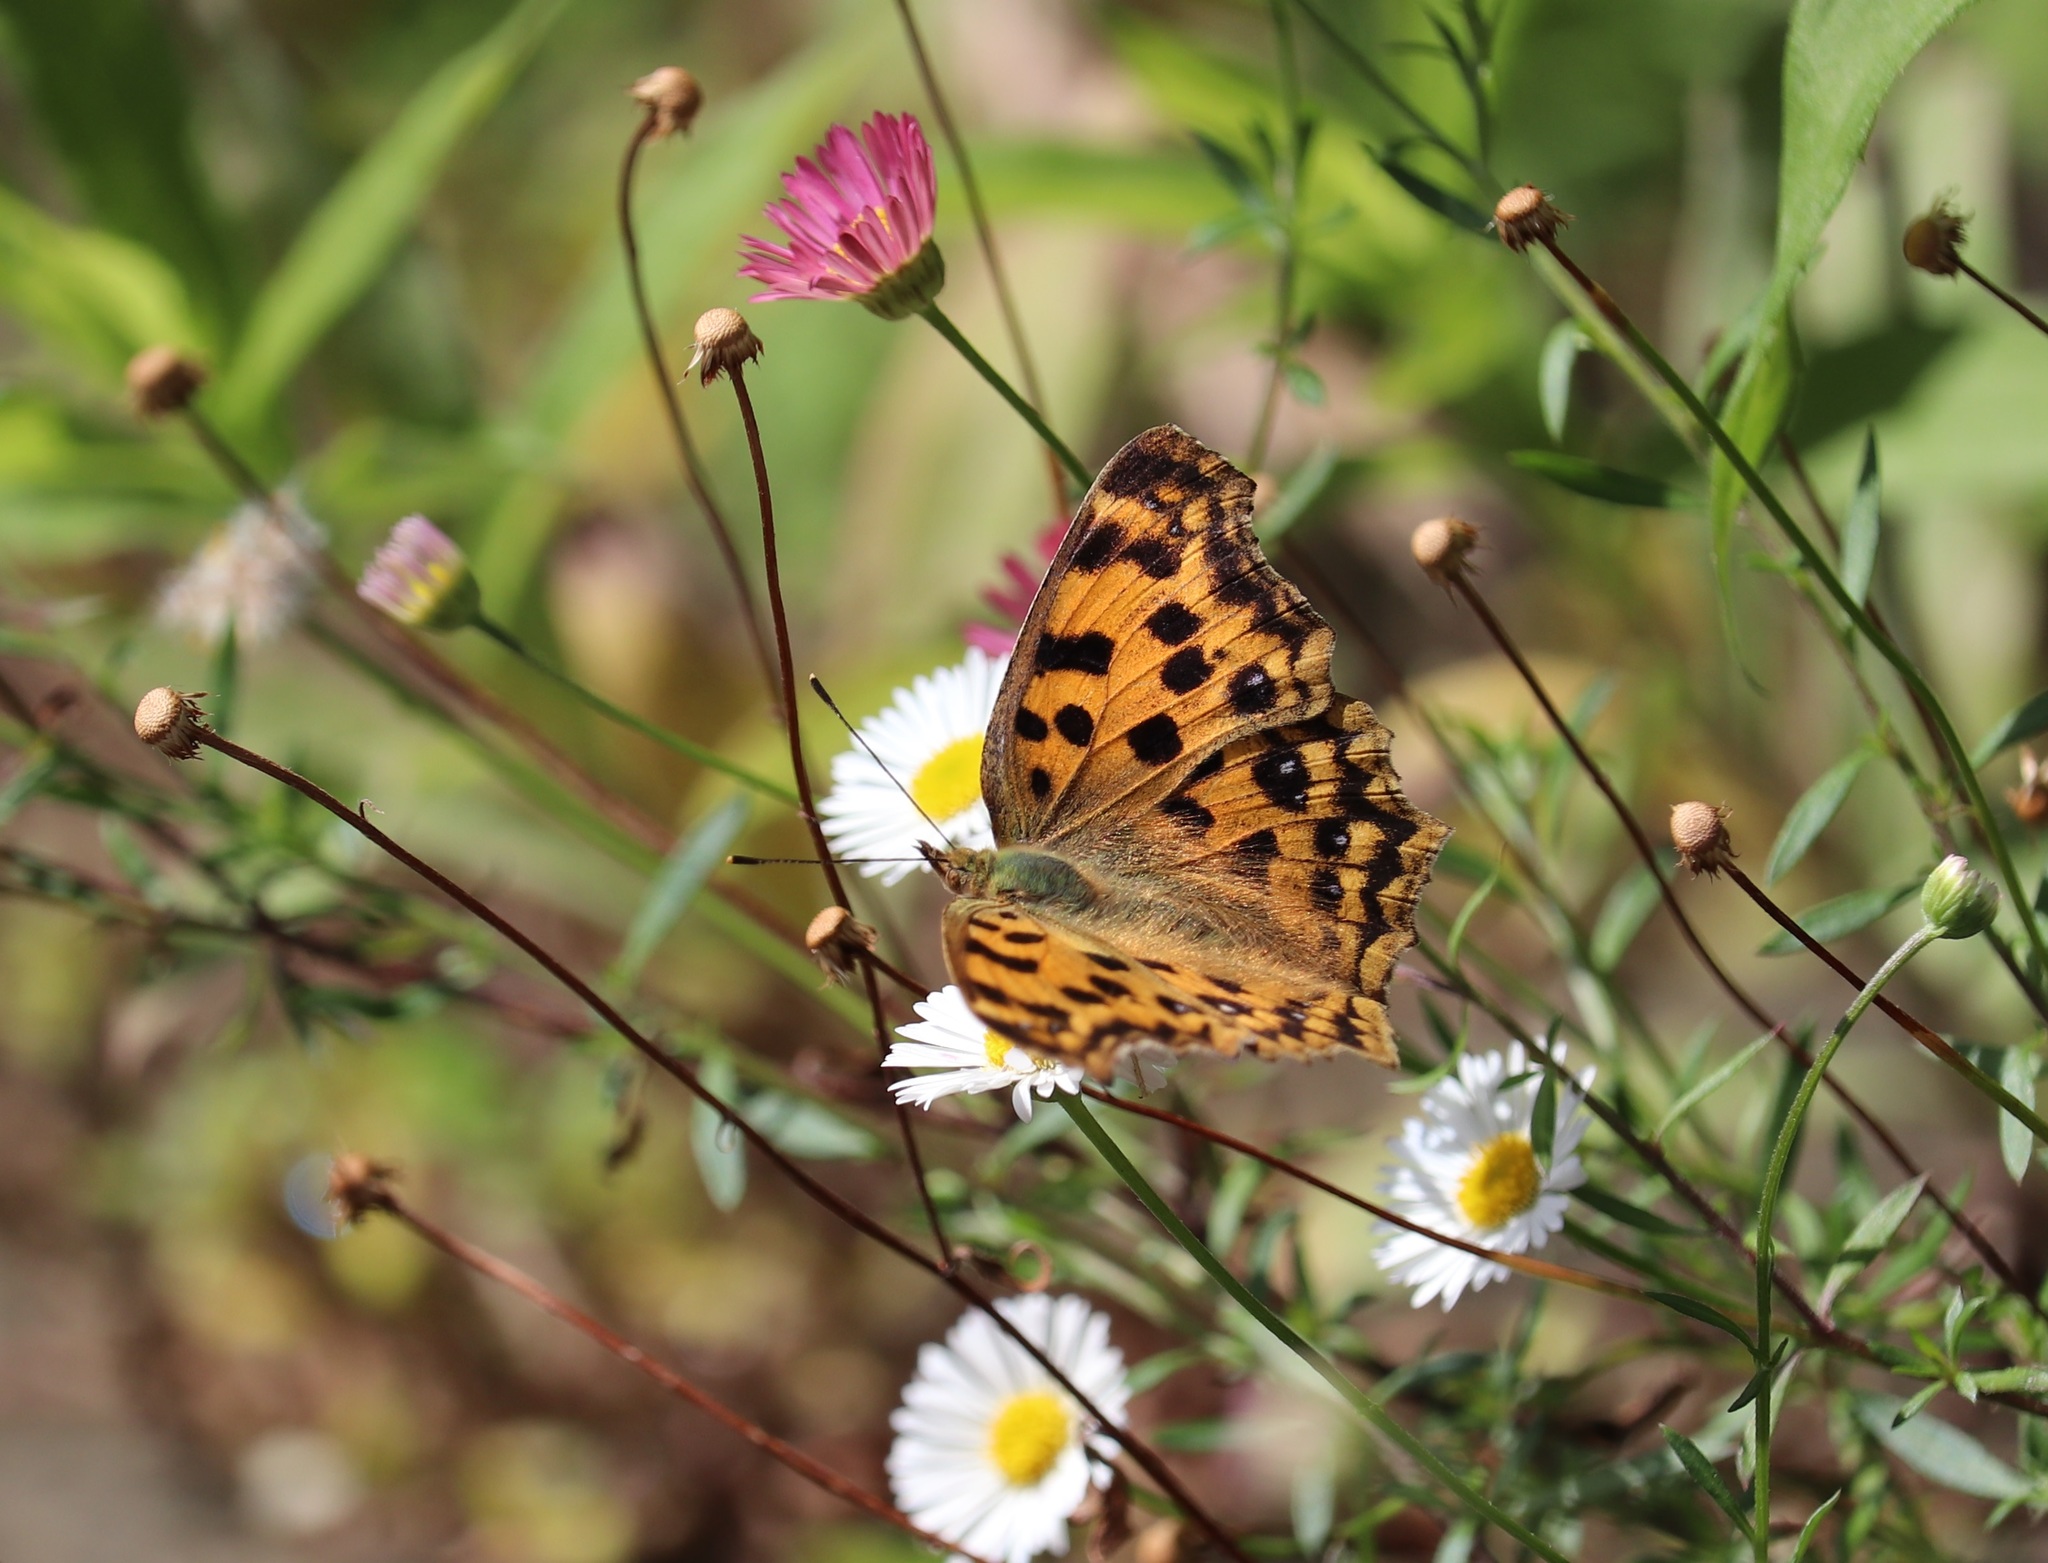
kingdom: Animalia
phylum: Arthropoda
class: Insecta
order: Lepidoptera
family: Nymphalidae
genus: Polygonia
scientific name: Polygonia c-aureum
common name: Asian comma
